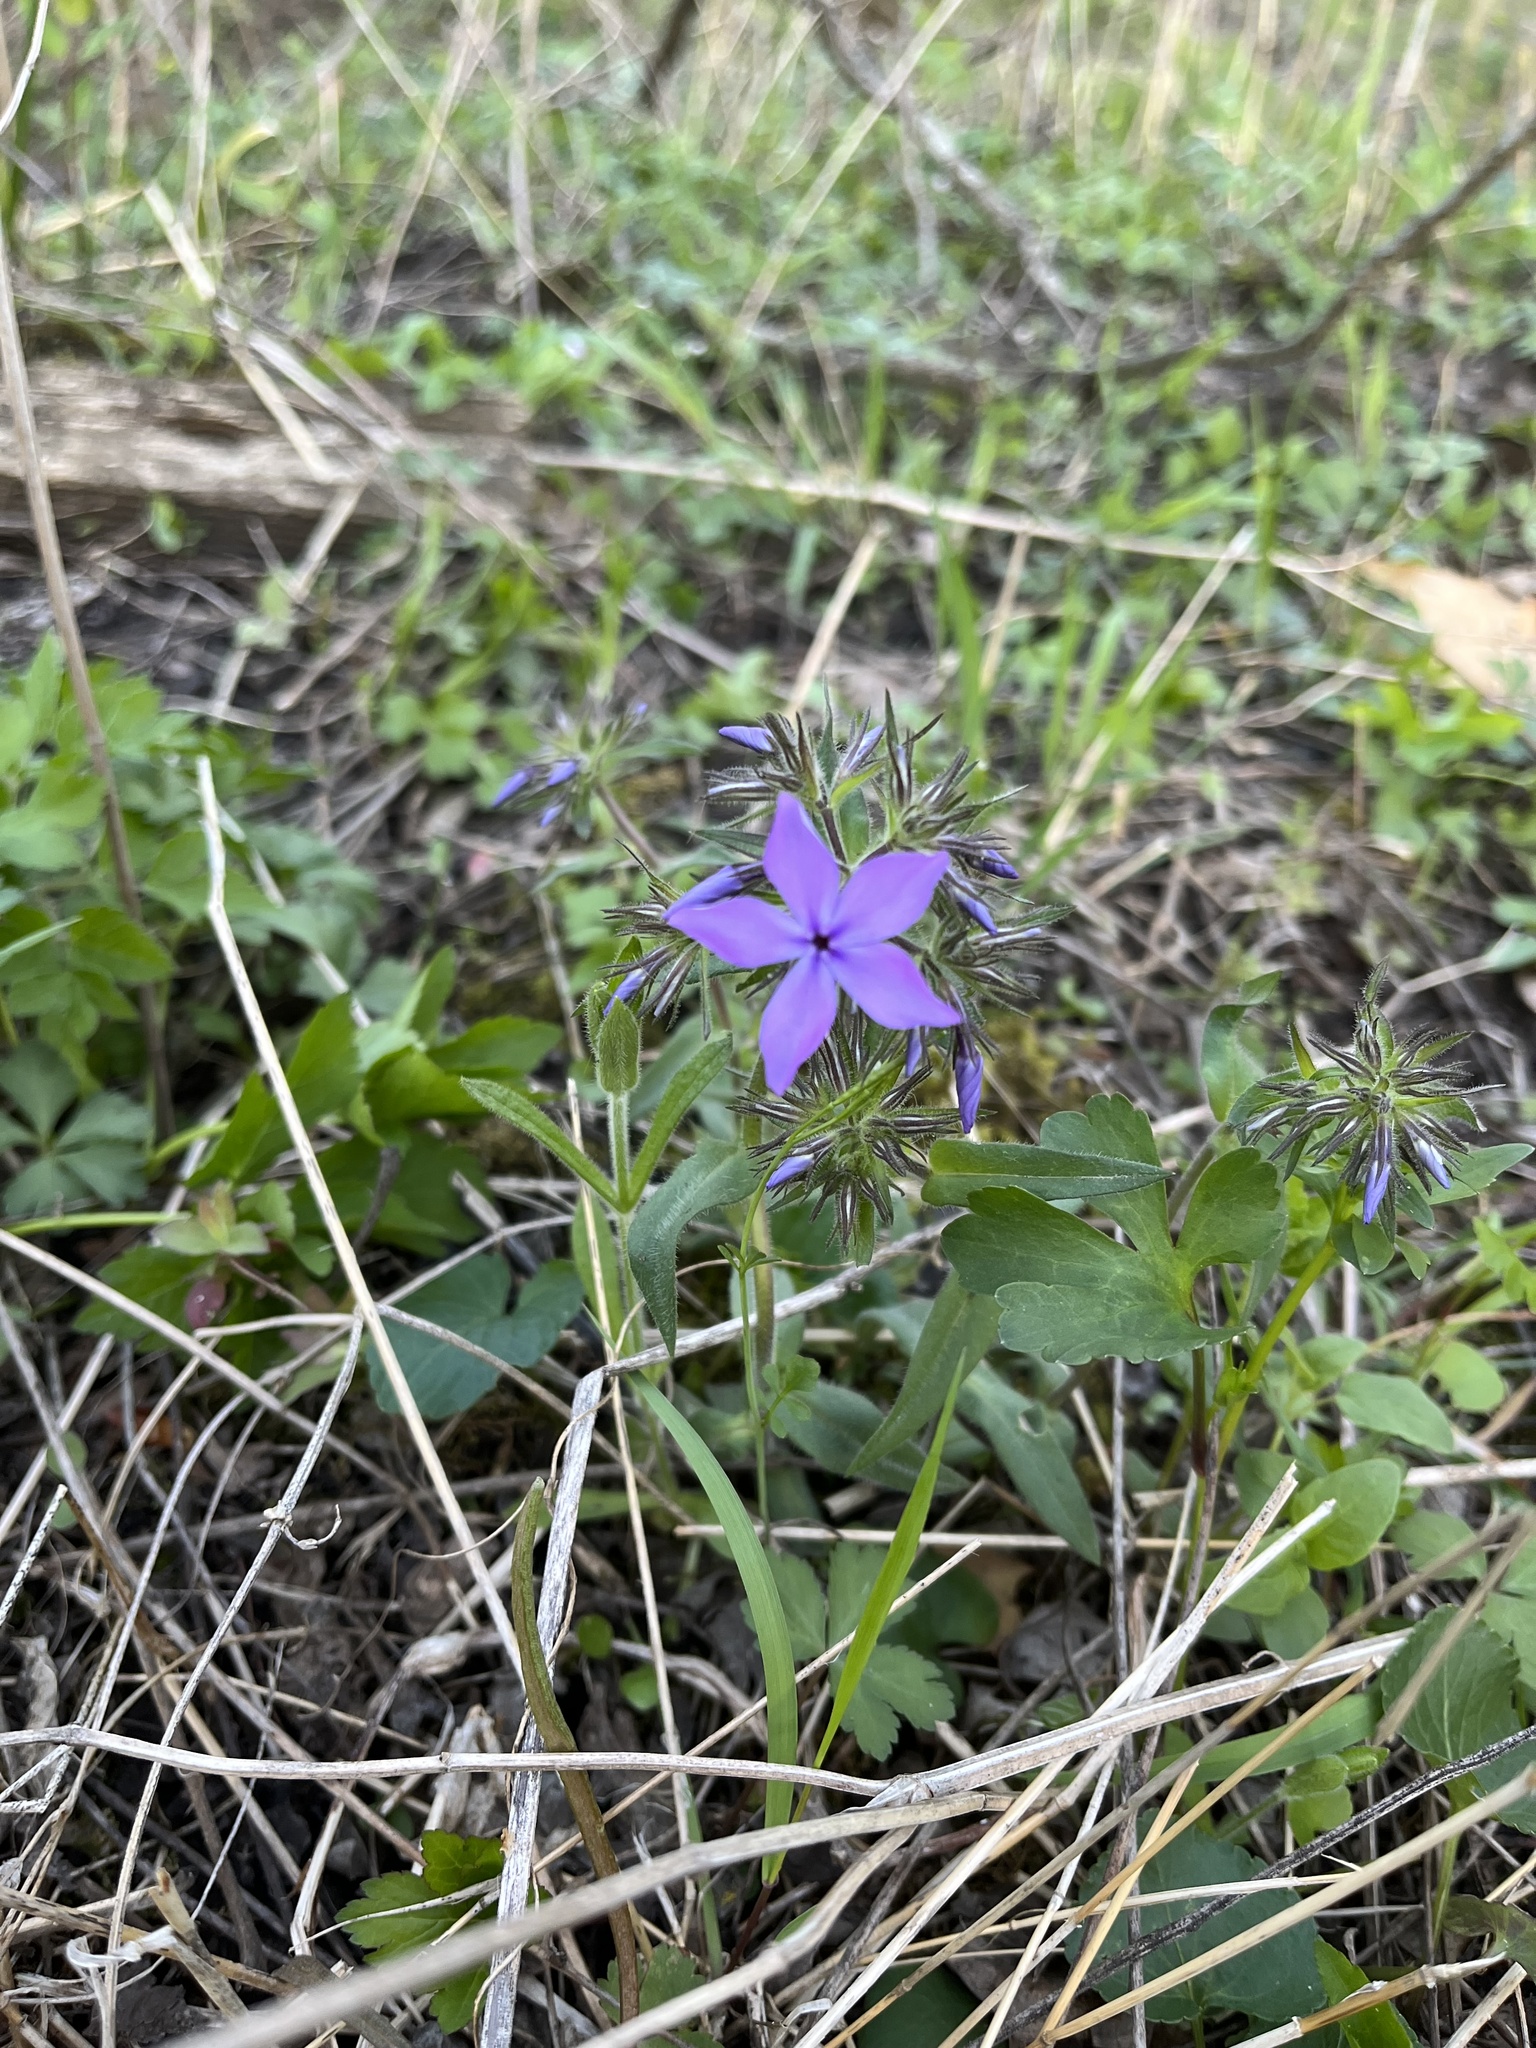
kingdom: Plantae
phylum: Tracheophyta
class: Magnoliopsida
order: Ericales
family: Polemoniaceae
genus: Phlox
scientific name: Phlox divaricata
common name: Blue phlox
